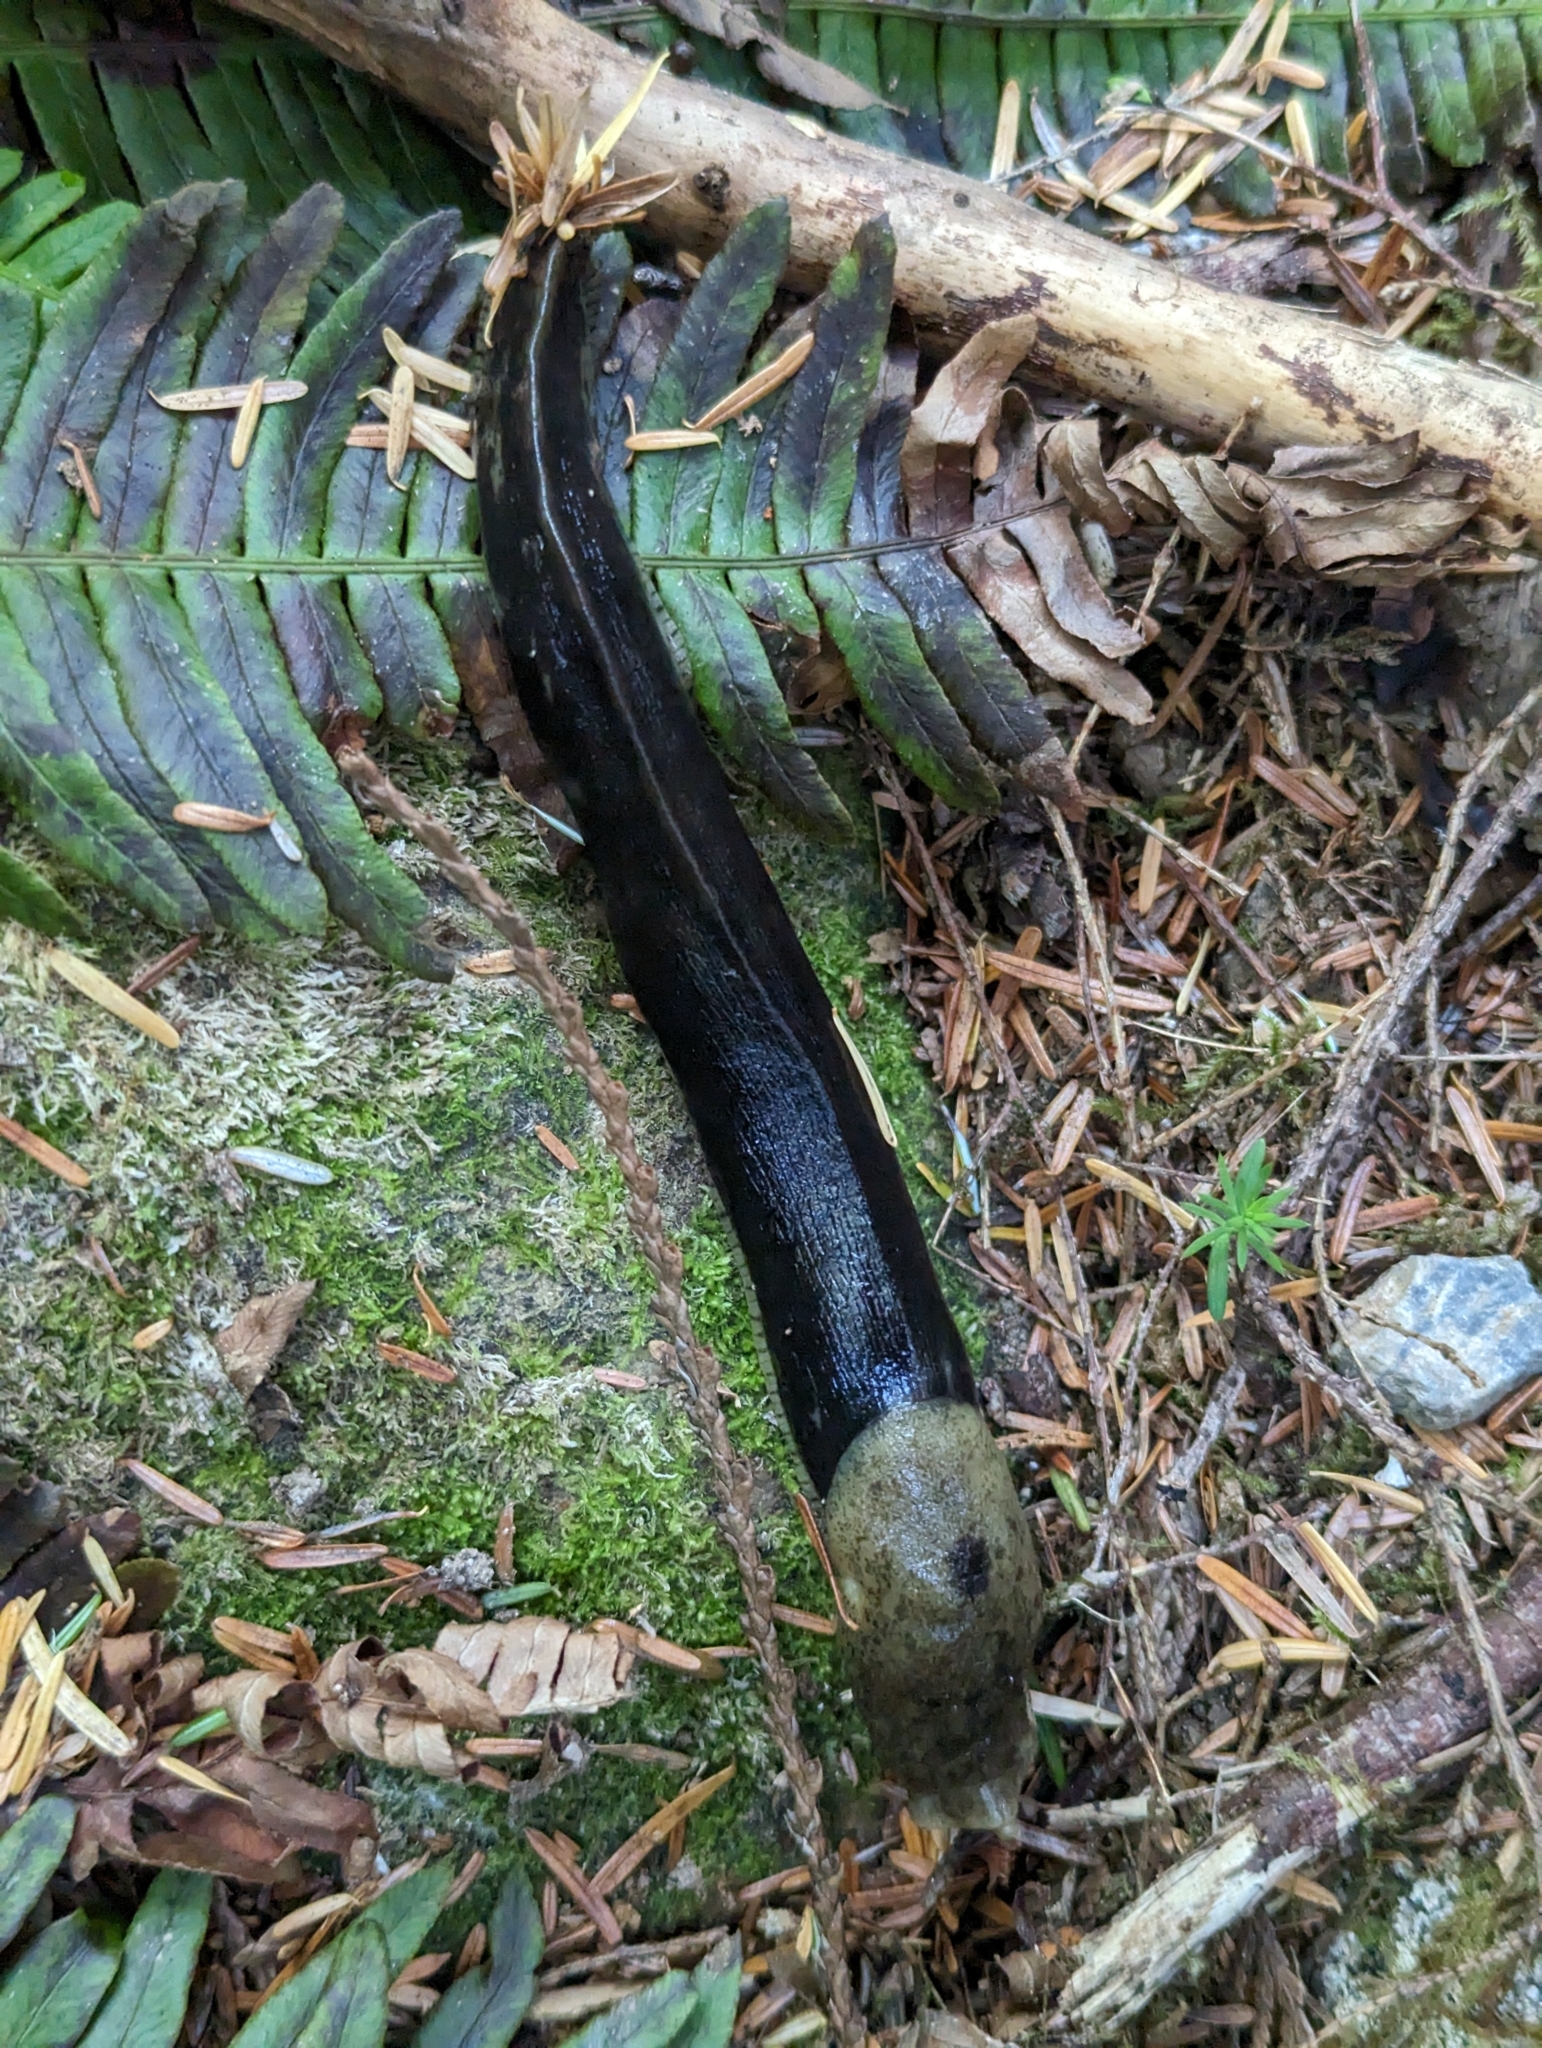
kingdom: Animalia
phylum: Mollusca
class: Gastropoda
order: Stylommatophora
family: Ariolimacidae
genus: Ariolimax
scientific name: Ariolimax columbianus
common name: Pacific banana slug
